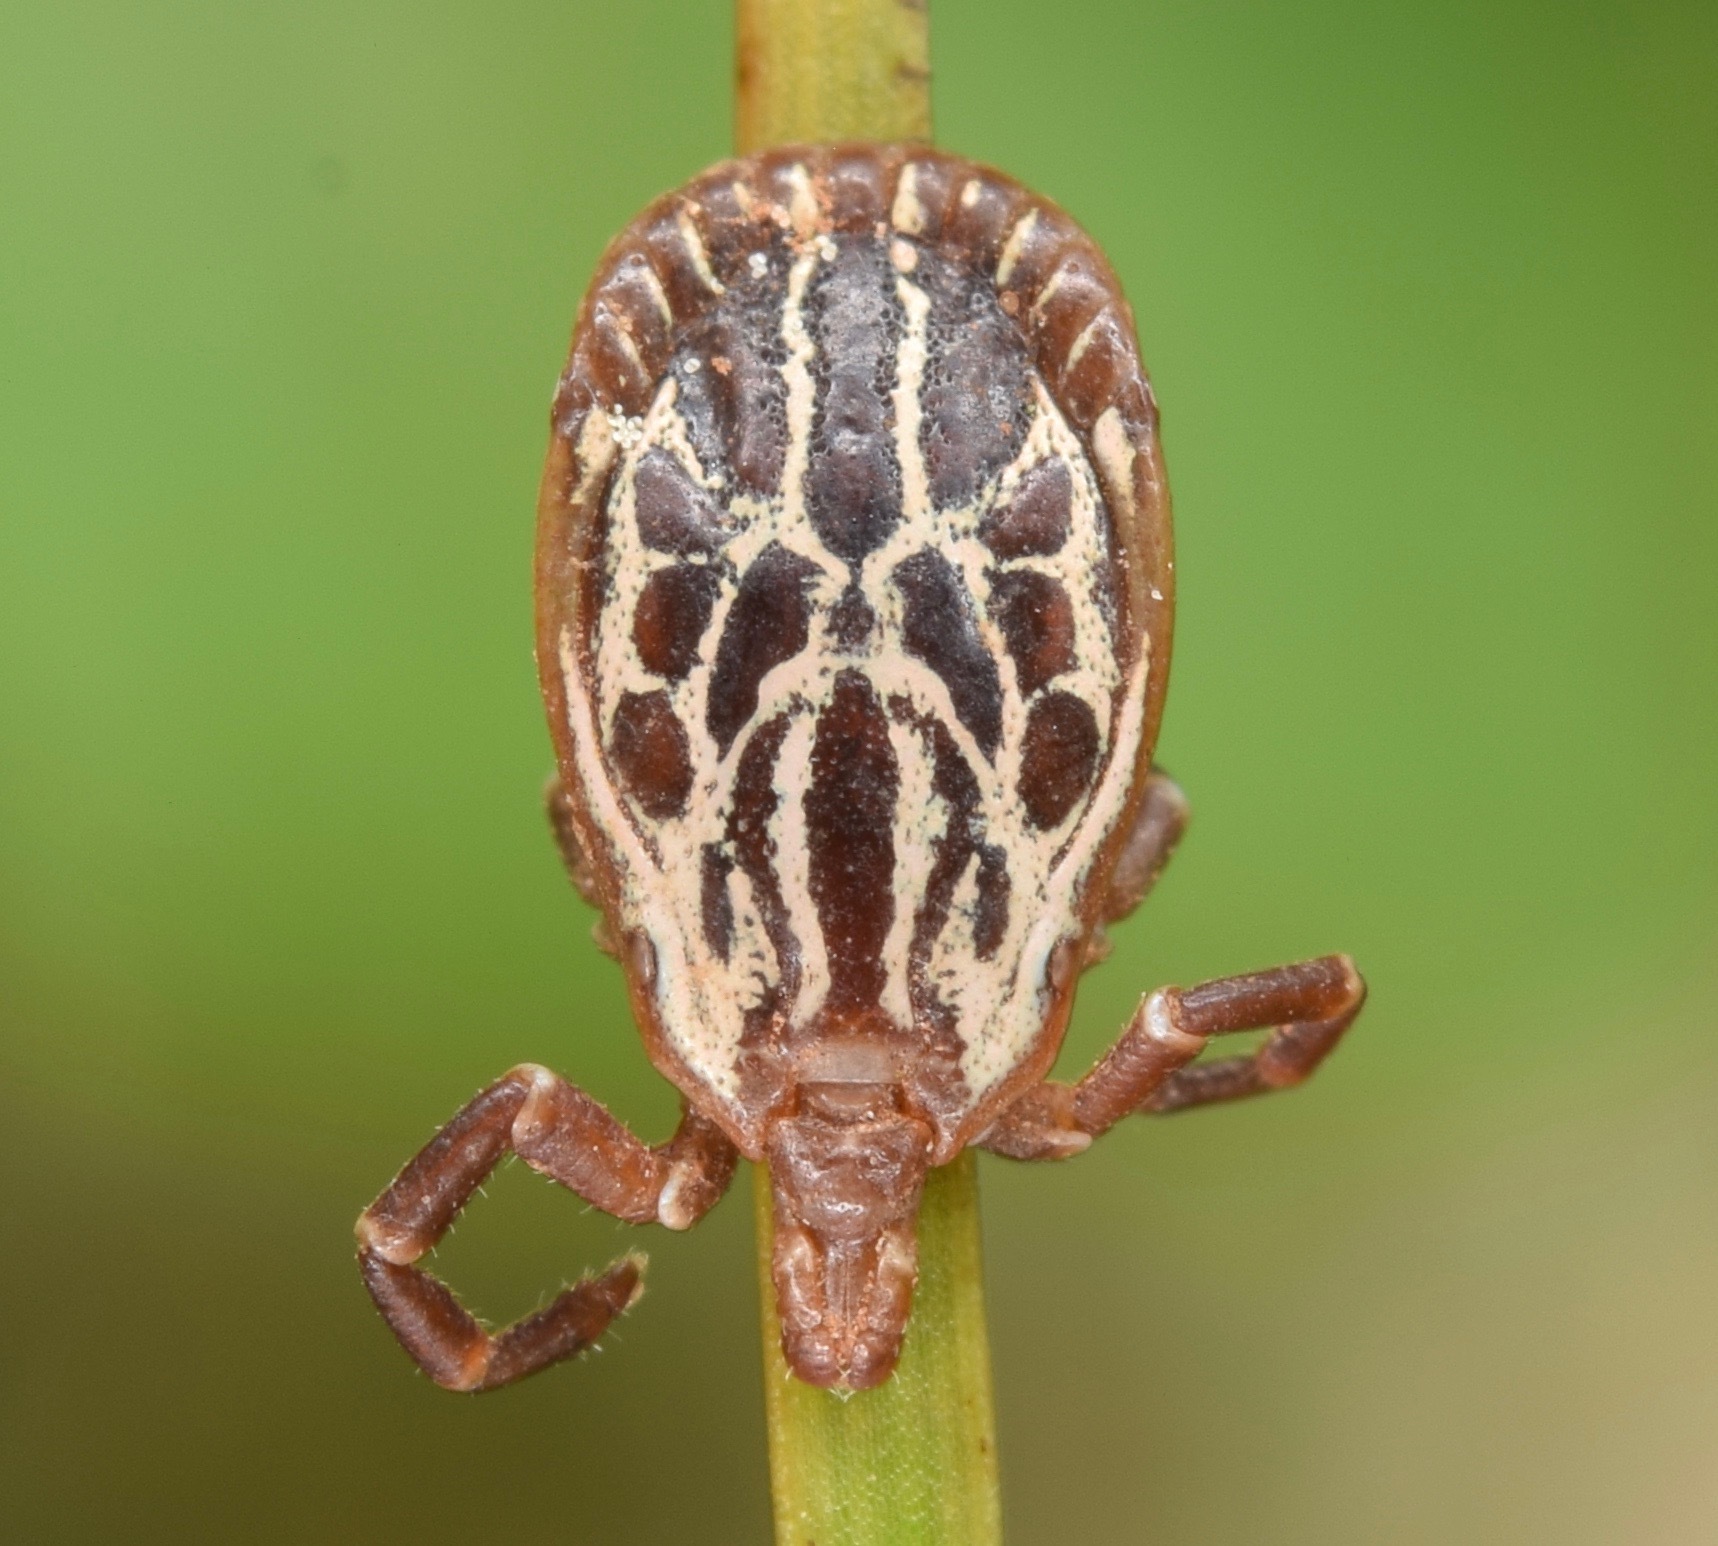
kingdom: Animalia
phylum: Arthropoda
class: Arachnida
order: Ixodida
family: Ixodidae
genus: Amblyomma
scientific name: Amblyomma maculatum
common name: Gulf coast tick
